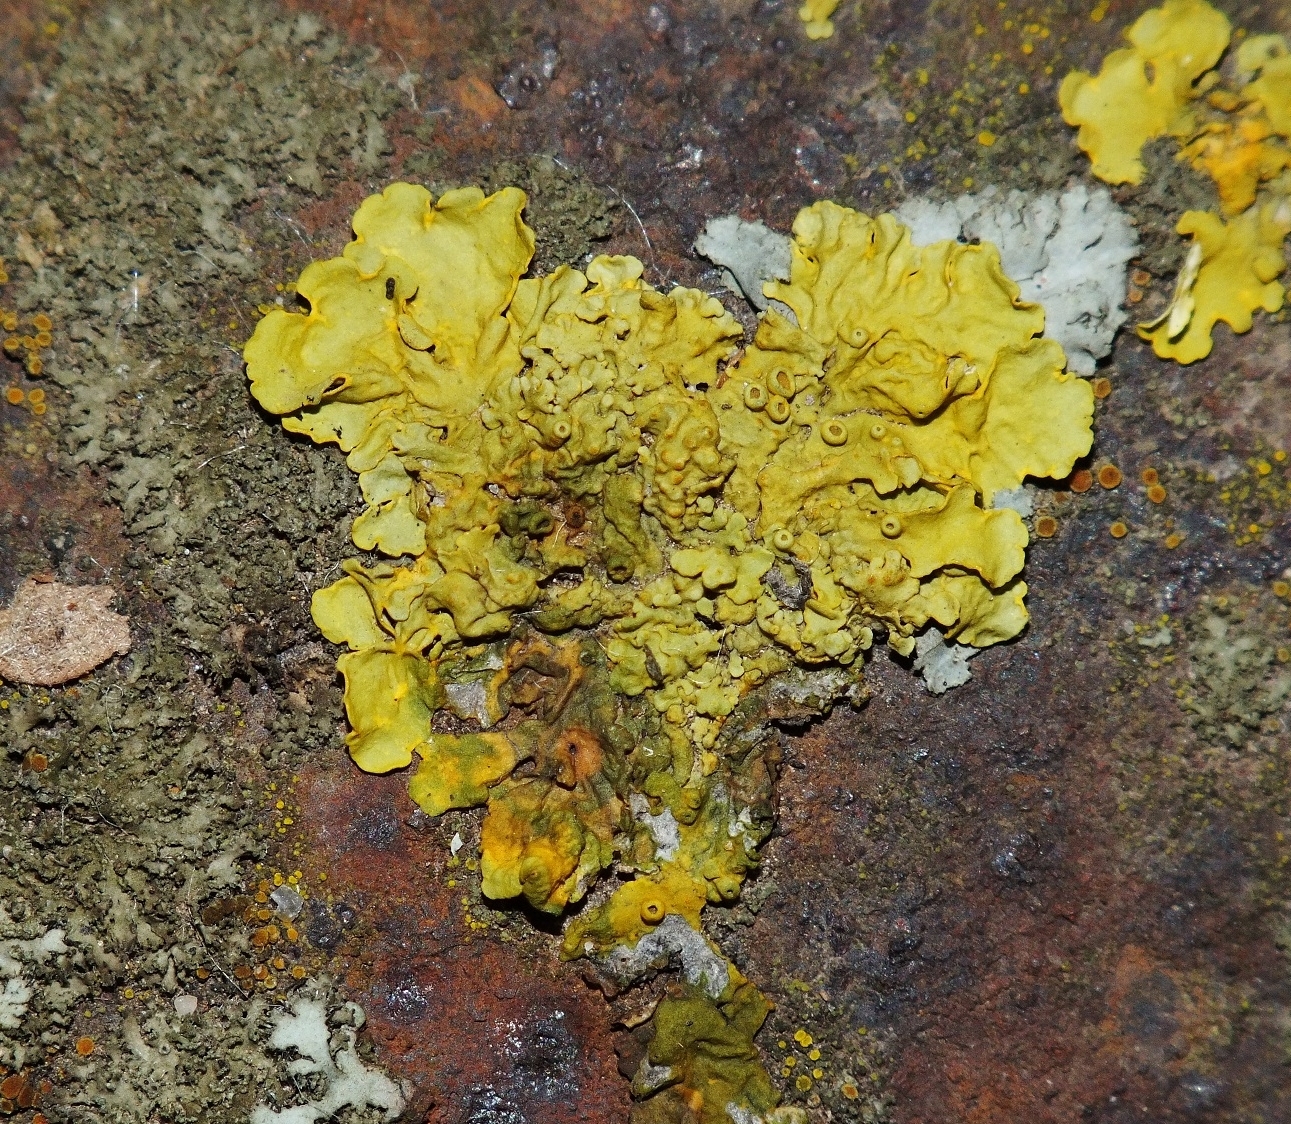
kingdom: Fungi
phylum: Ascomycota
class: Lecanoromycetes
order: Teloschistales
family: Teloschistaceae
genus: Xanthoria
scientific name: Xanthoria parietina
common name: Common orange lichen
